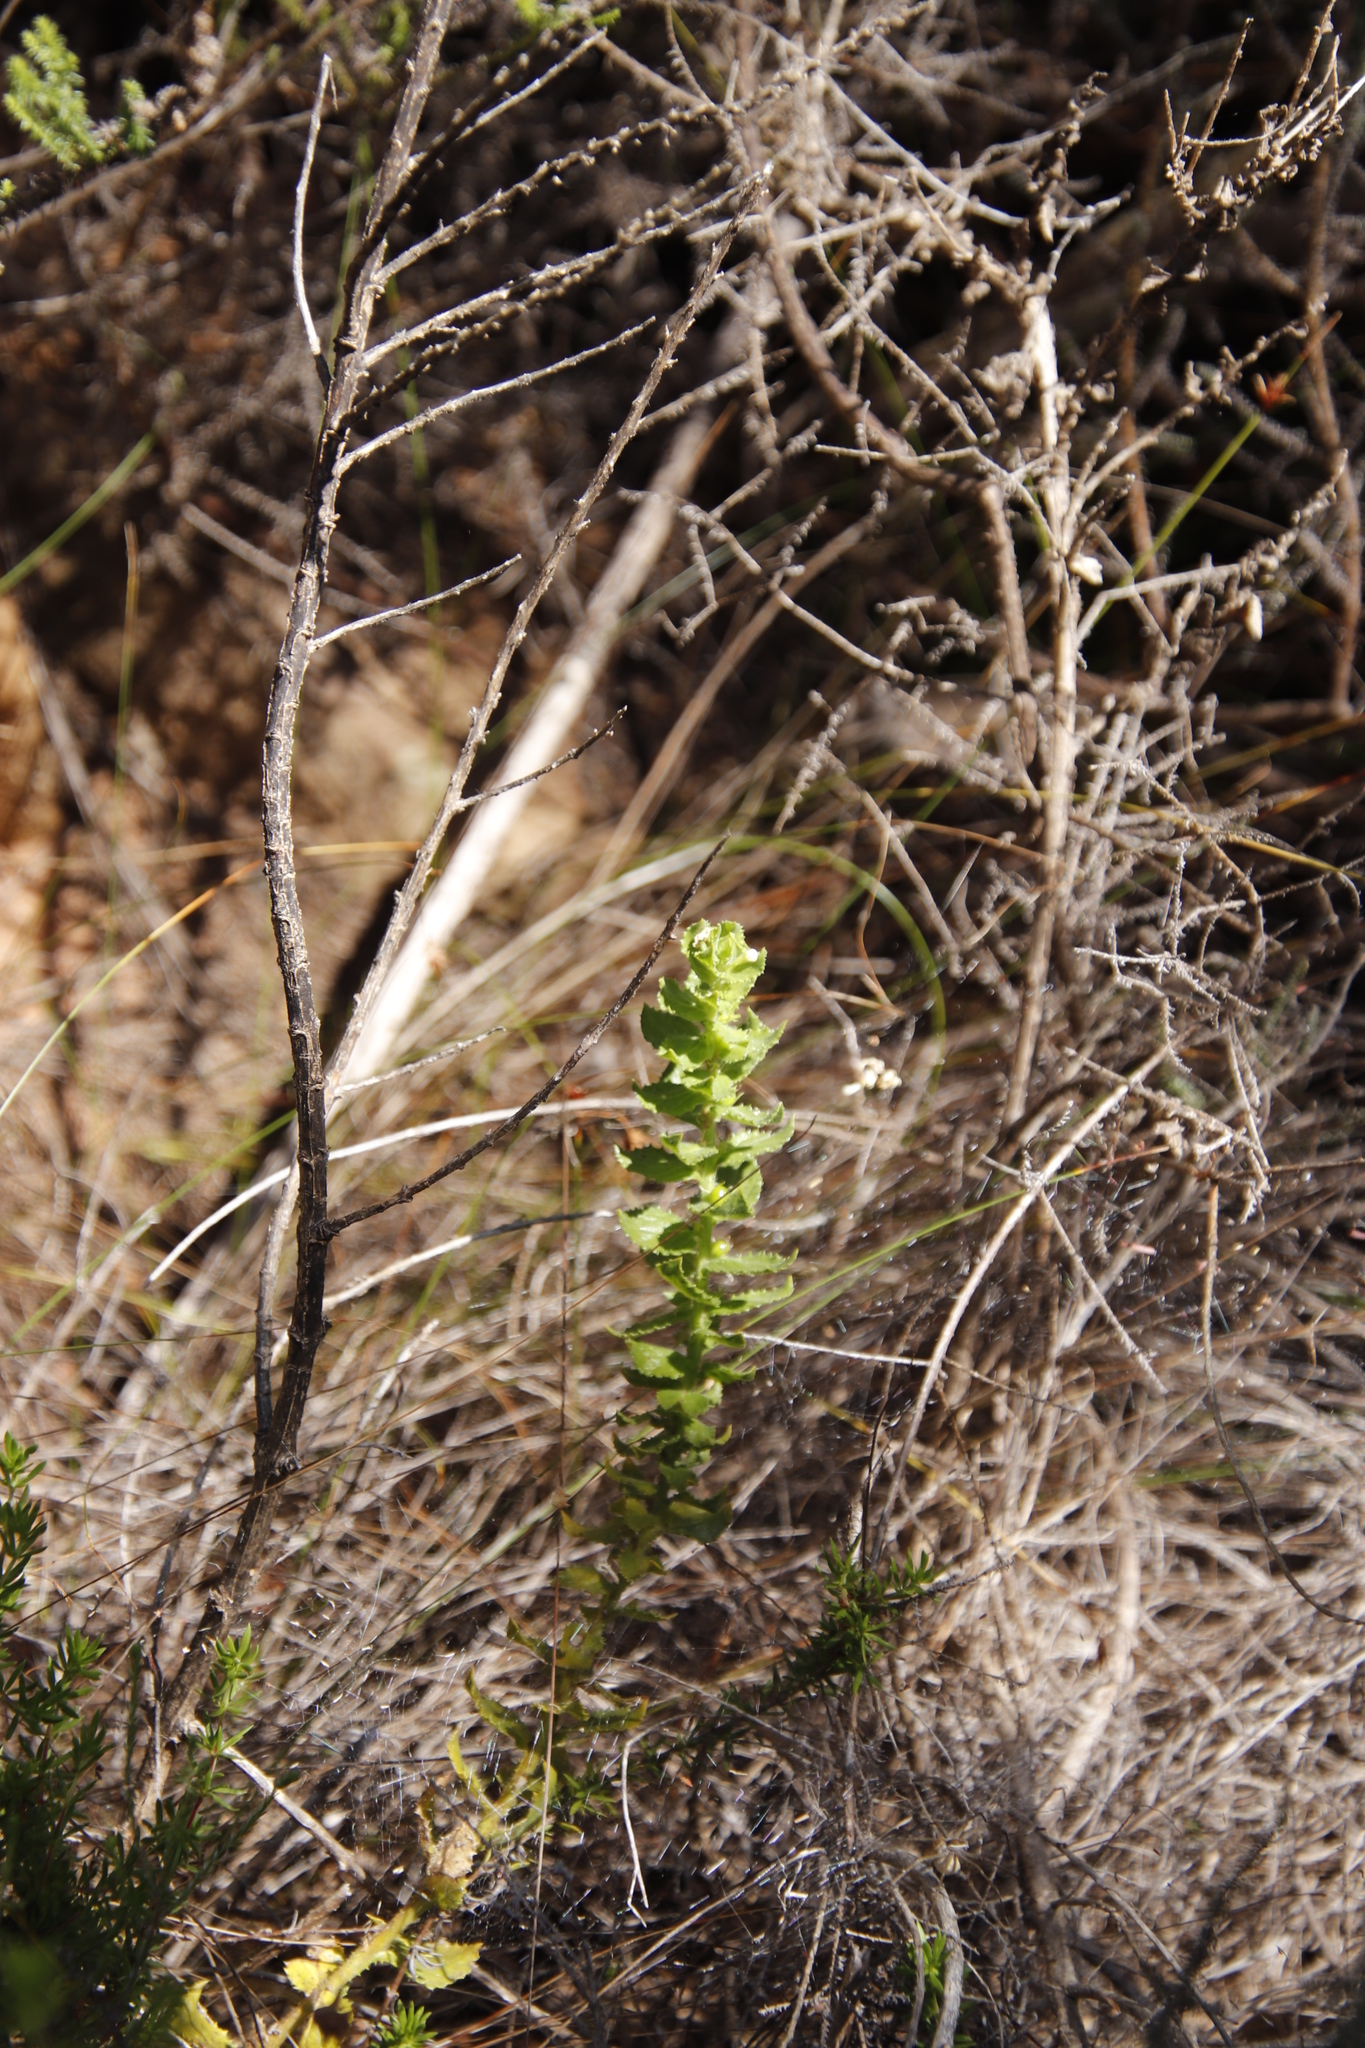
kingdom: Plantae
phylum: Tracheophyta
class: Magnoliopsida
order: Lamiales
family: Scrophulariaceae
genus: Oftia
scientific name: Oftia africana
